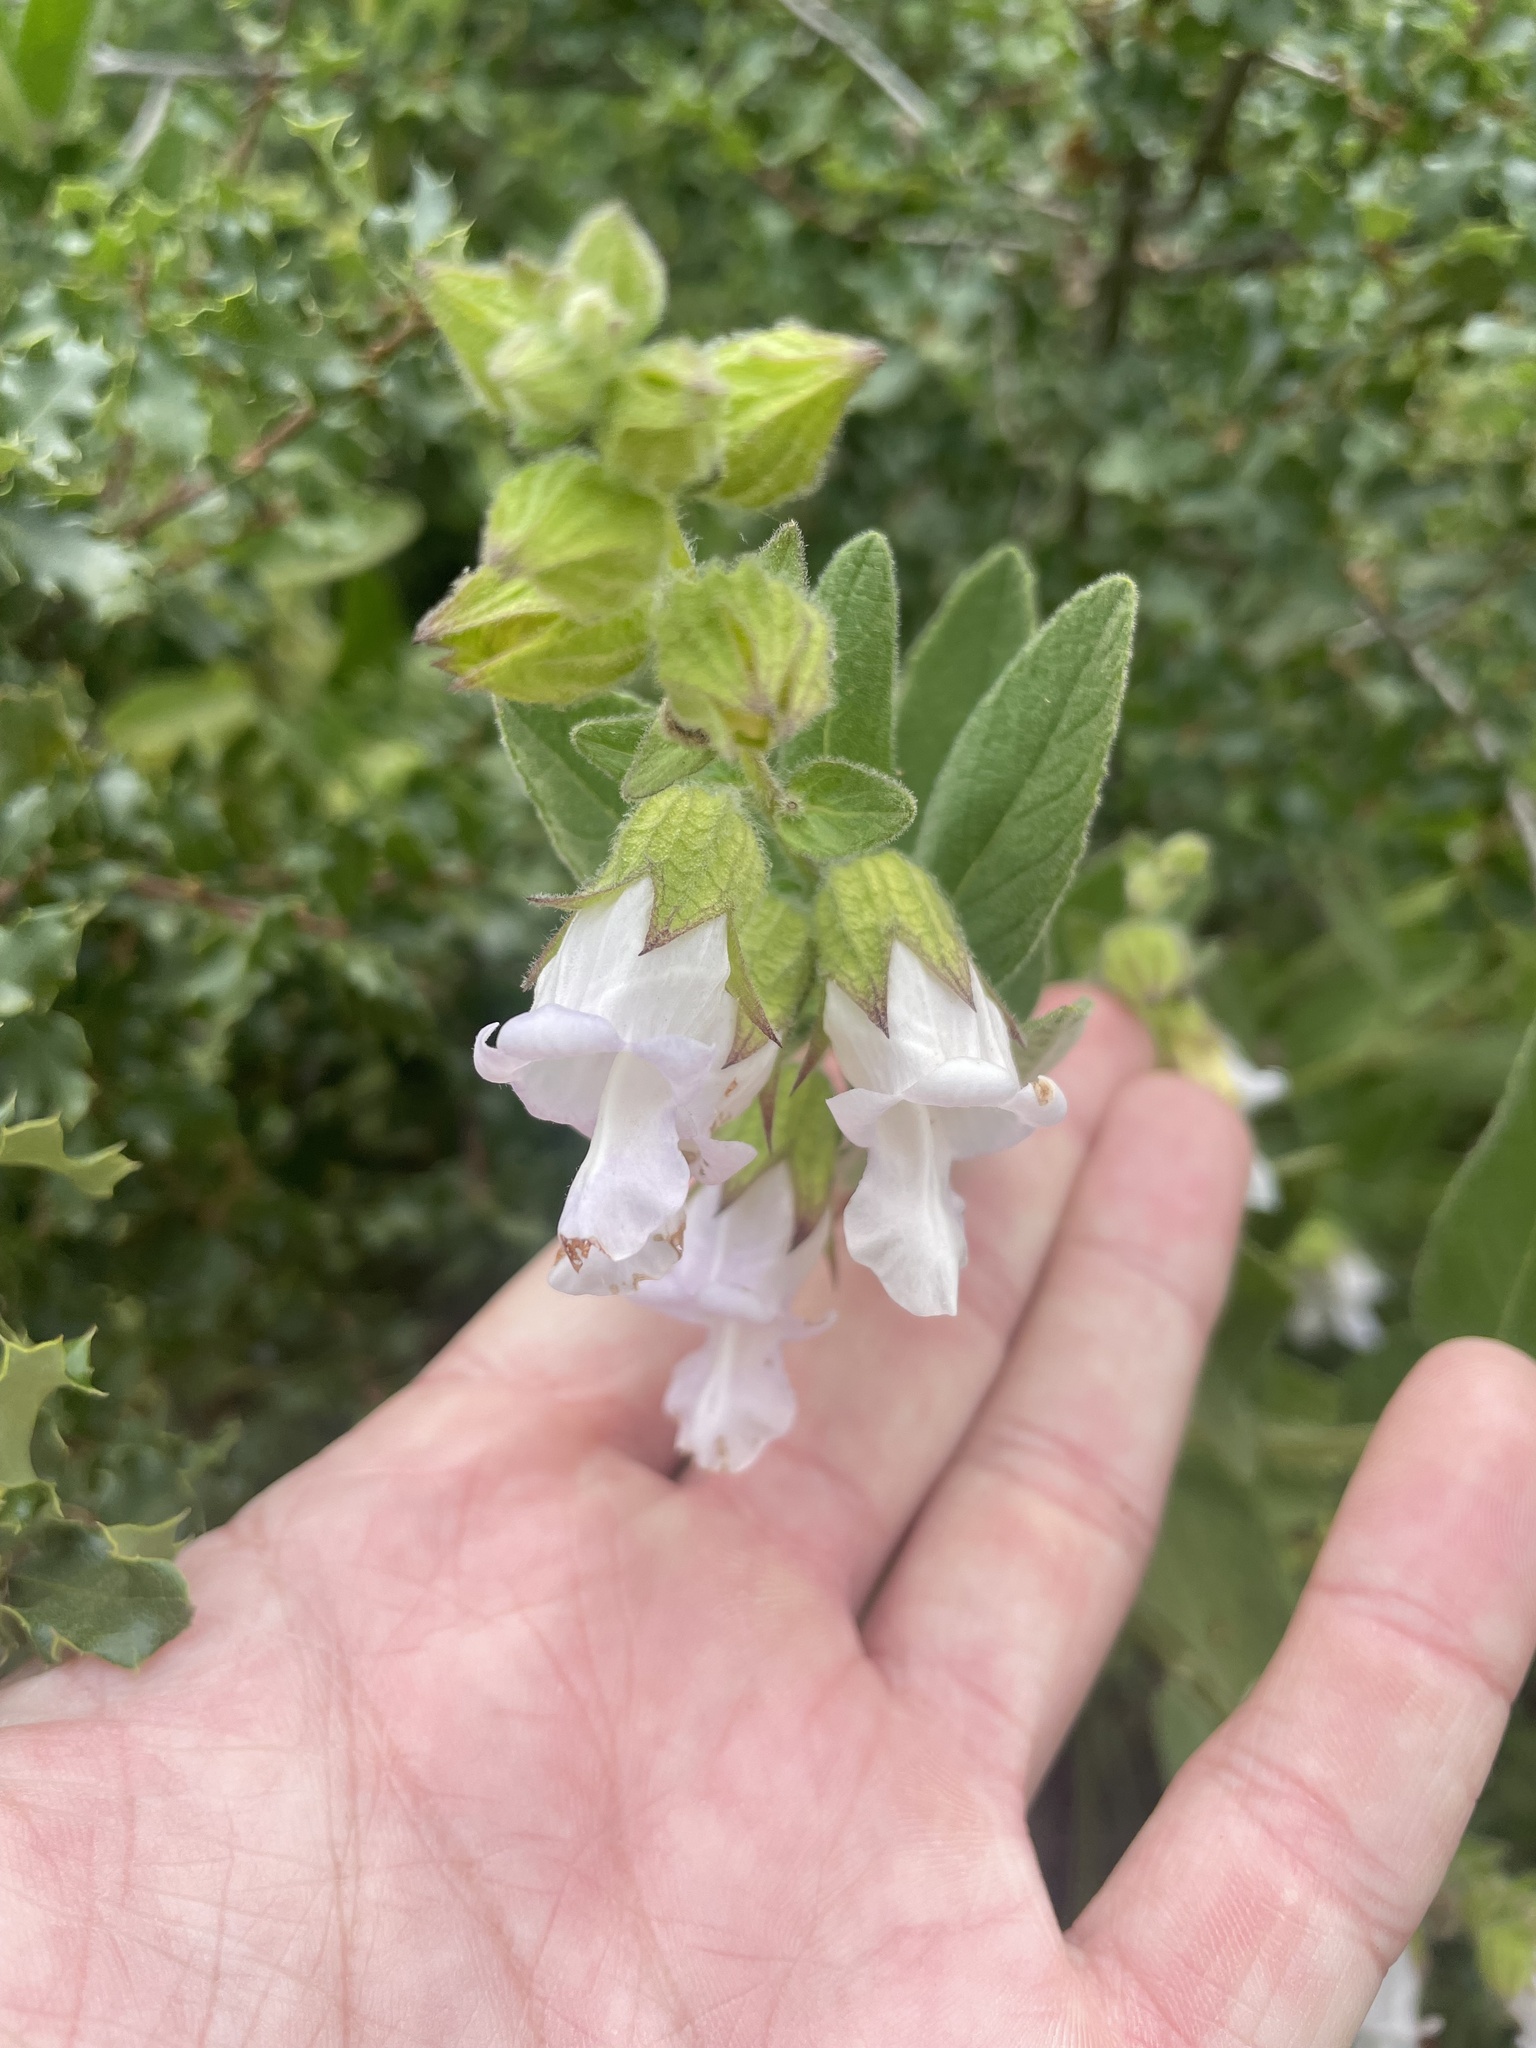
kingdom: Plantae
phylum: Tracheophyta
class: Magnoliopsida
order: Lamiales
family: Lamiaceae
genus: Lepechinia
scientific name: Lepechinia calycina
